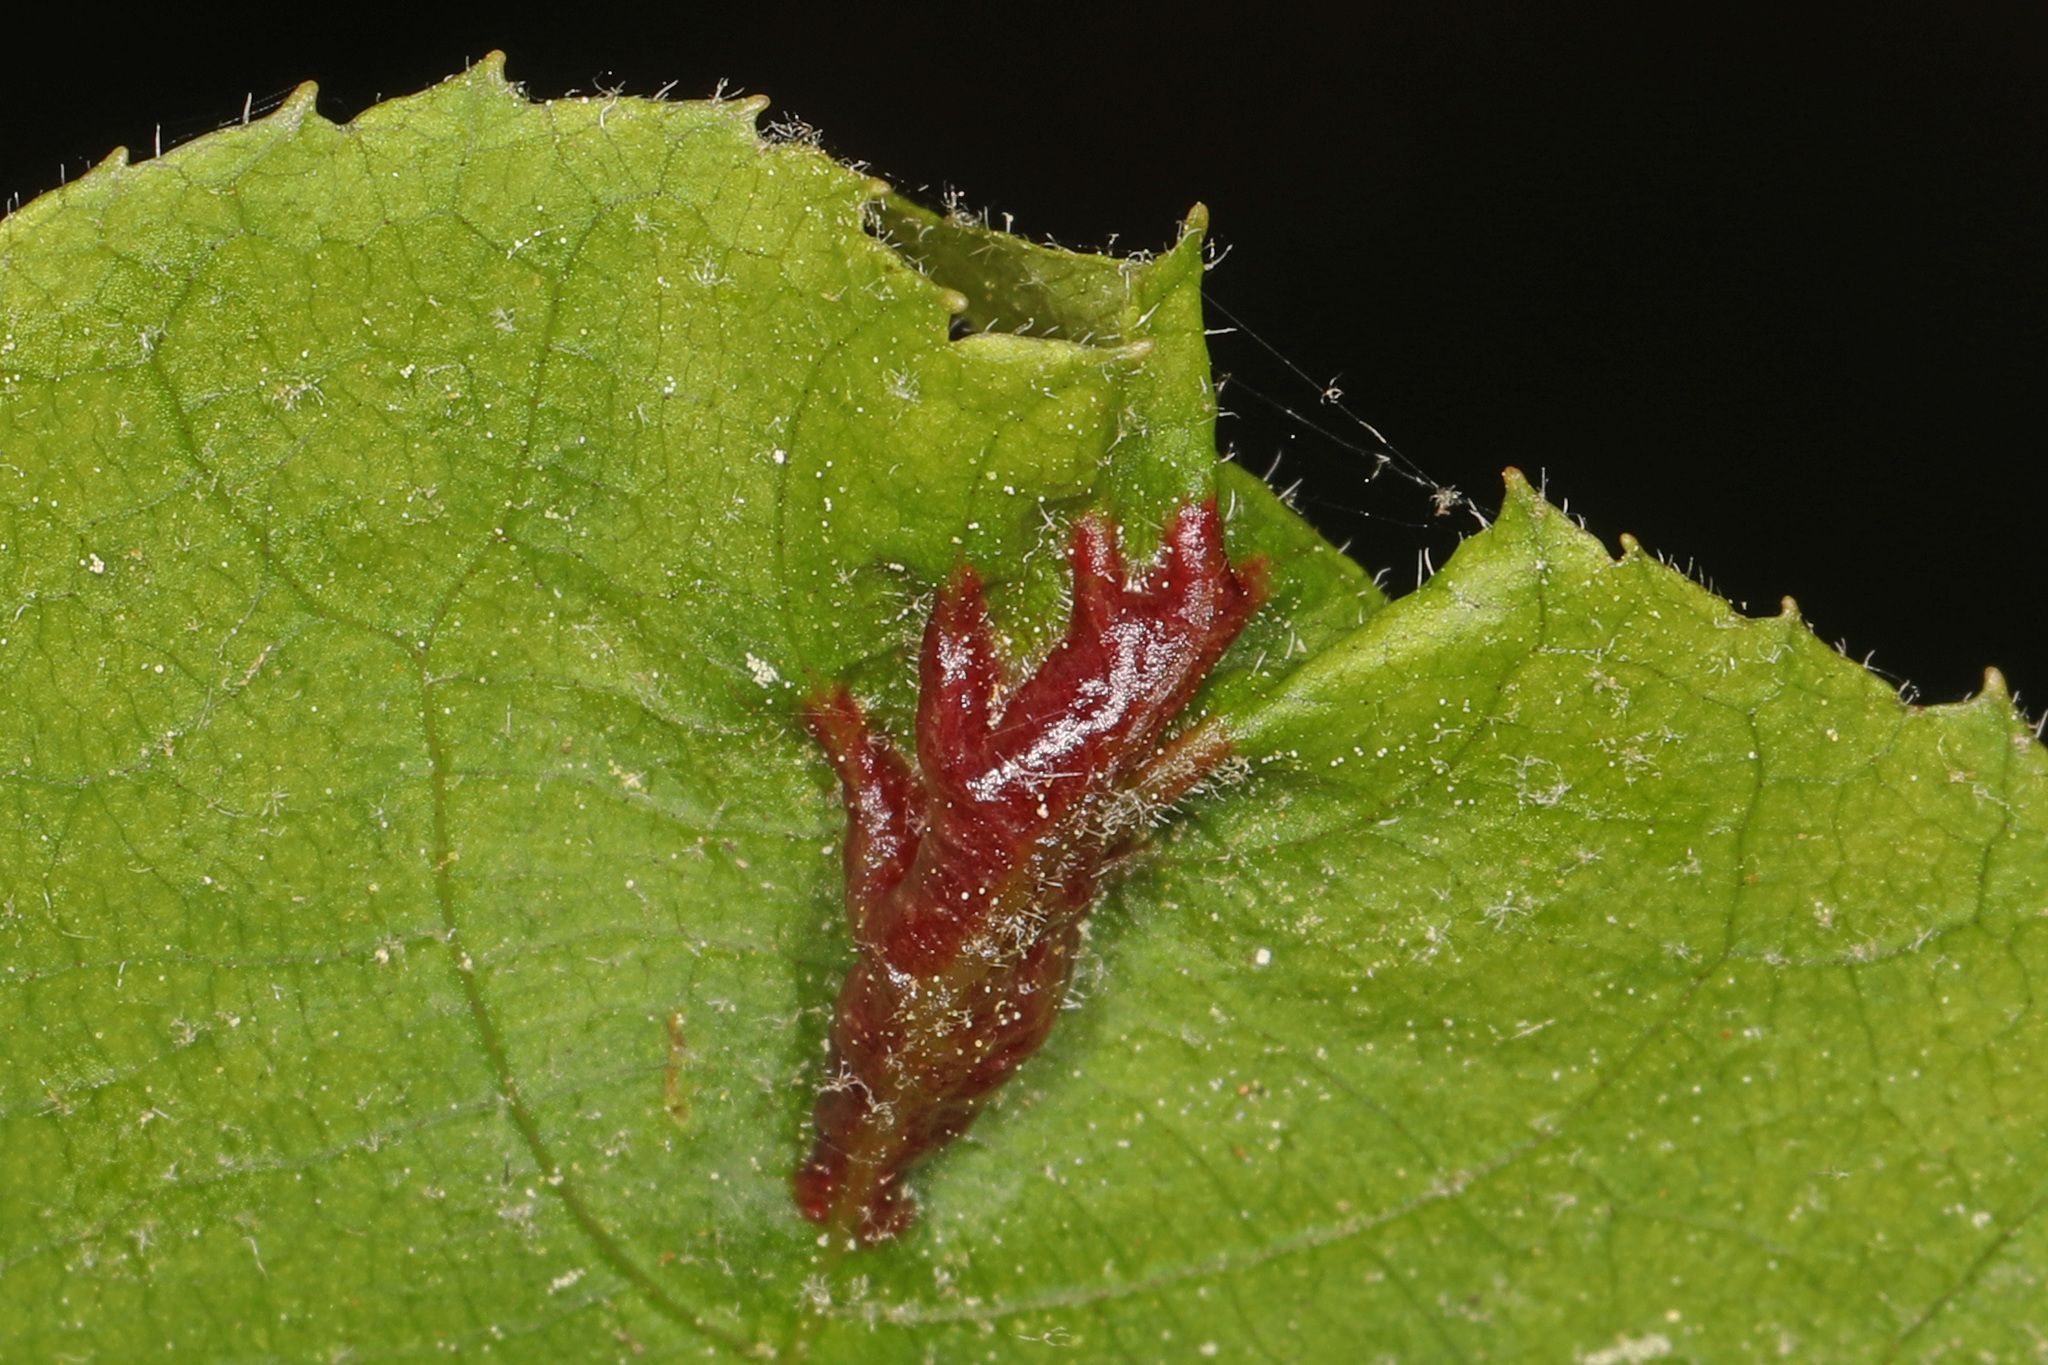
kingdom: Animalia
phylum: Arthropoda
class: Insecta
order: Hemiptera
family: Phylloxeridae
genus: Phylloxera
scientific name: Phylloxera caryaevenae
